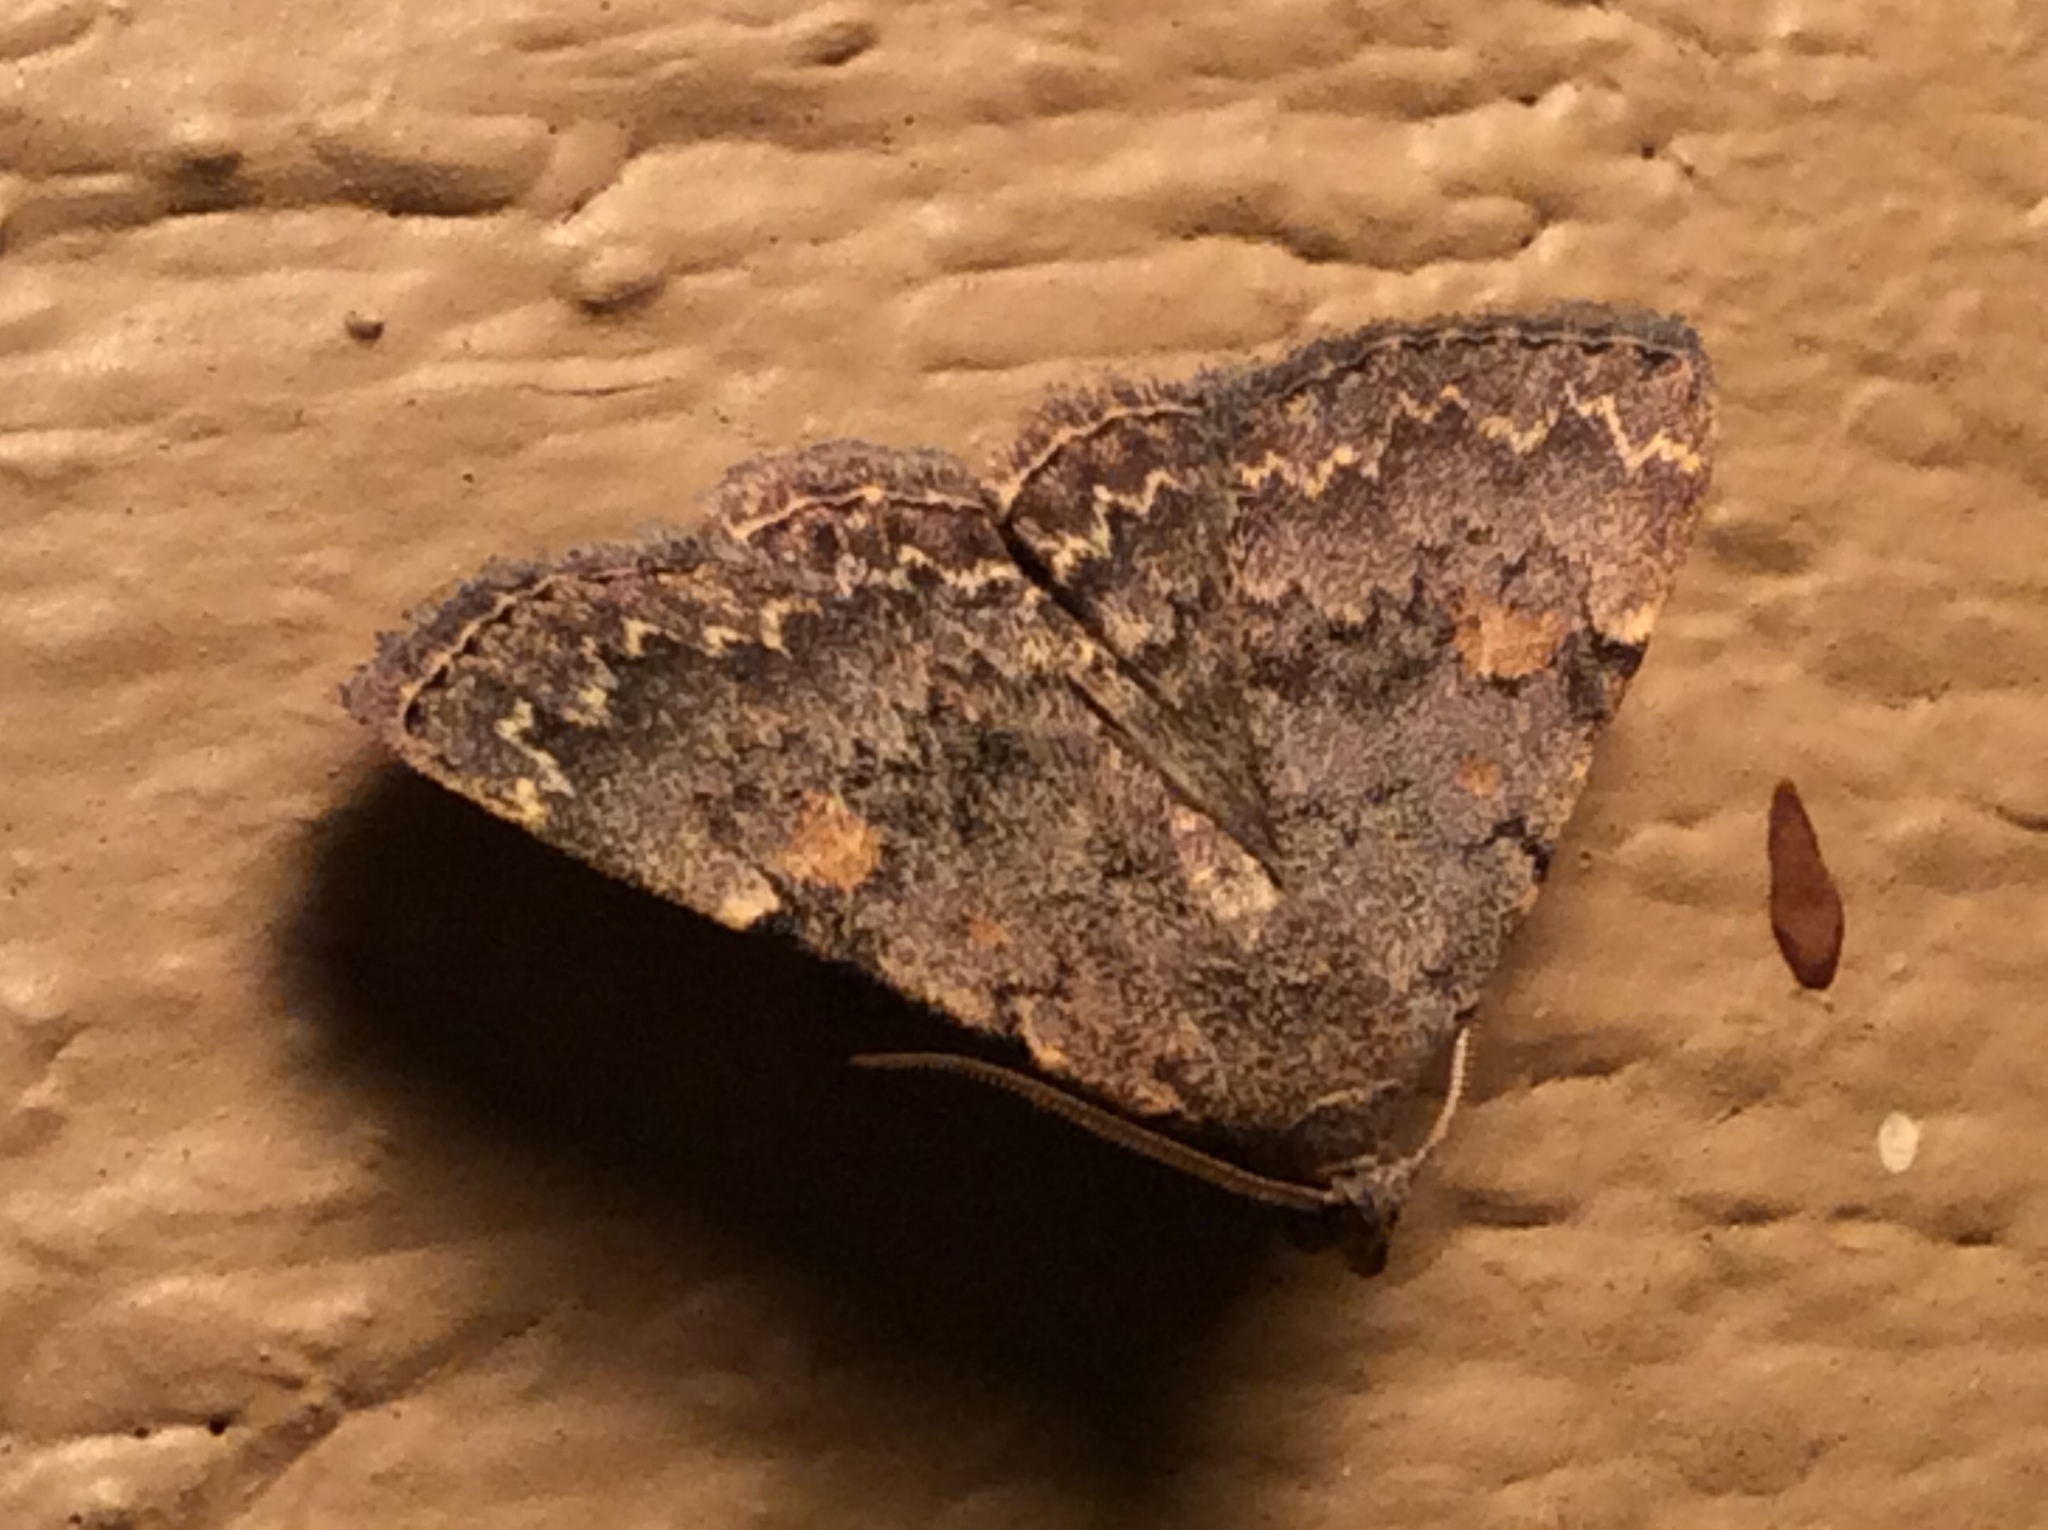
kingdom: Animalia
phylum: Arthropoda
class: Insecta
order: Lepidoptera
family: Erebidae
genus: Idia
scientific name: Idia aemula
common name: Common idia moth
